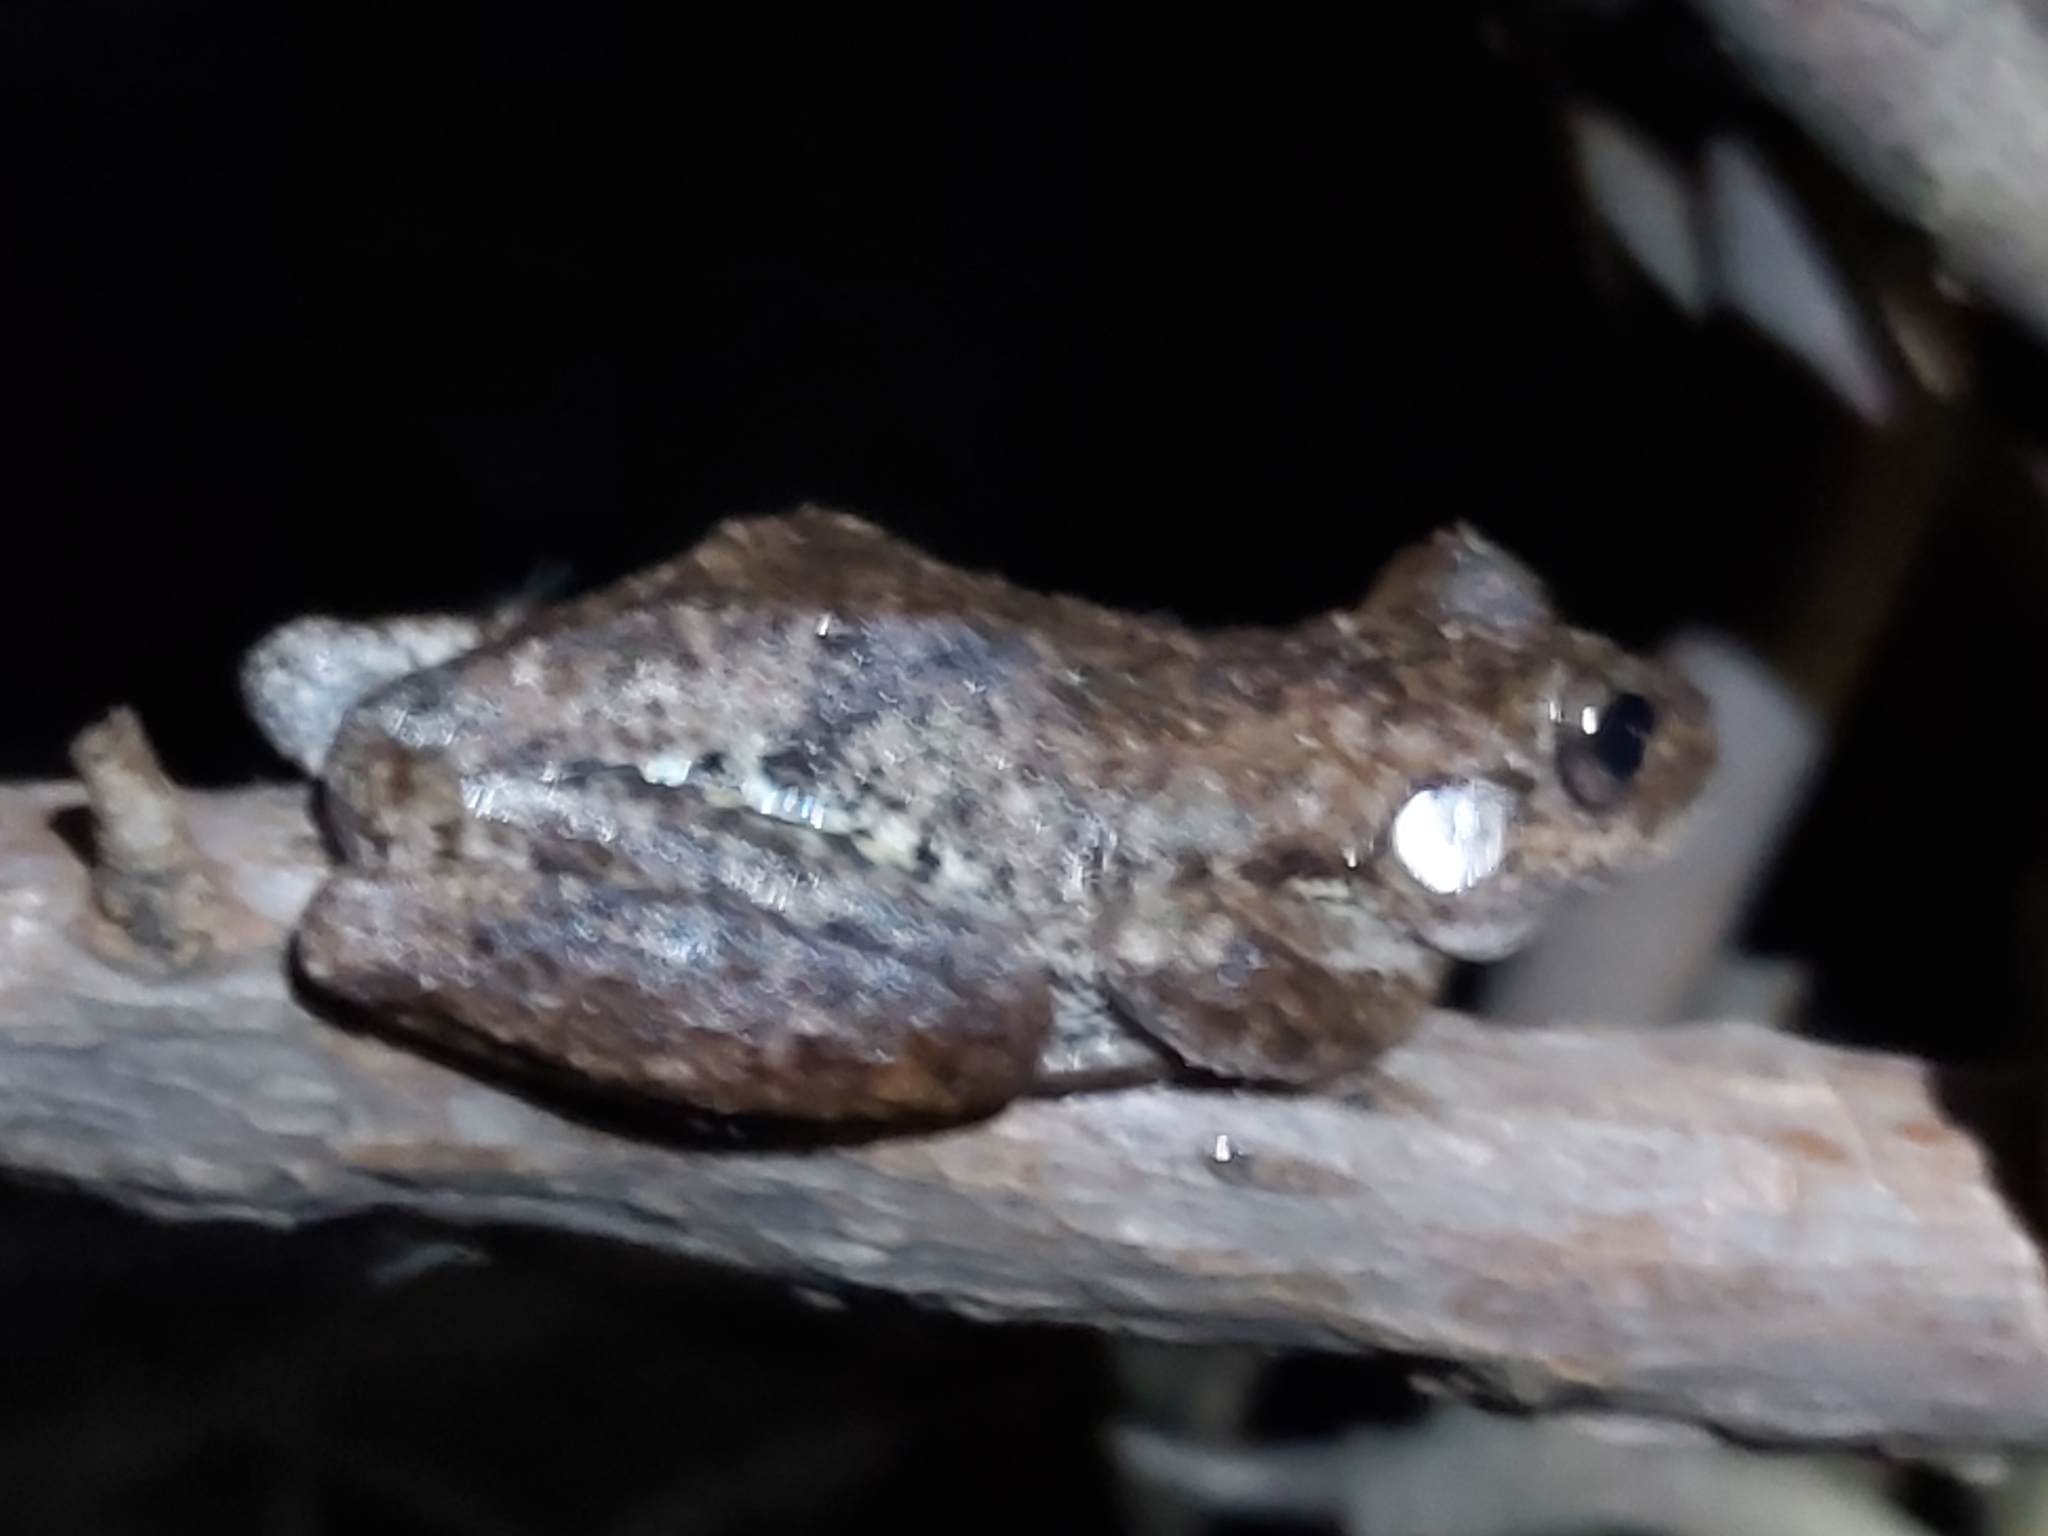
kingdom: Animalia
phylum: Chordata
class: Amphibia
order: Anura
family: Pelodryadidae
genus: Litoria
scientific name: Litoria peronii
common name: Emerald spotted treefrog
